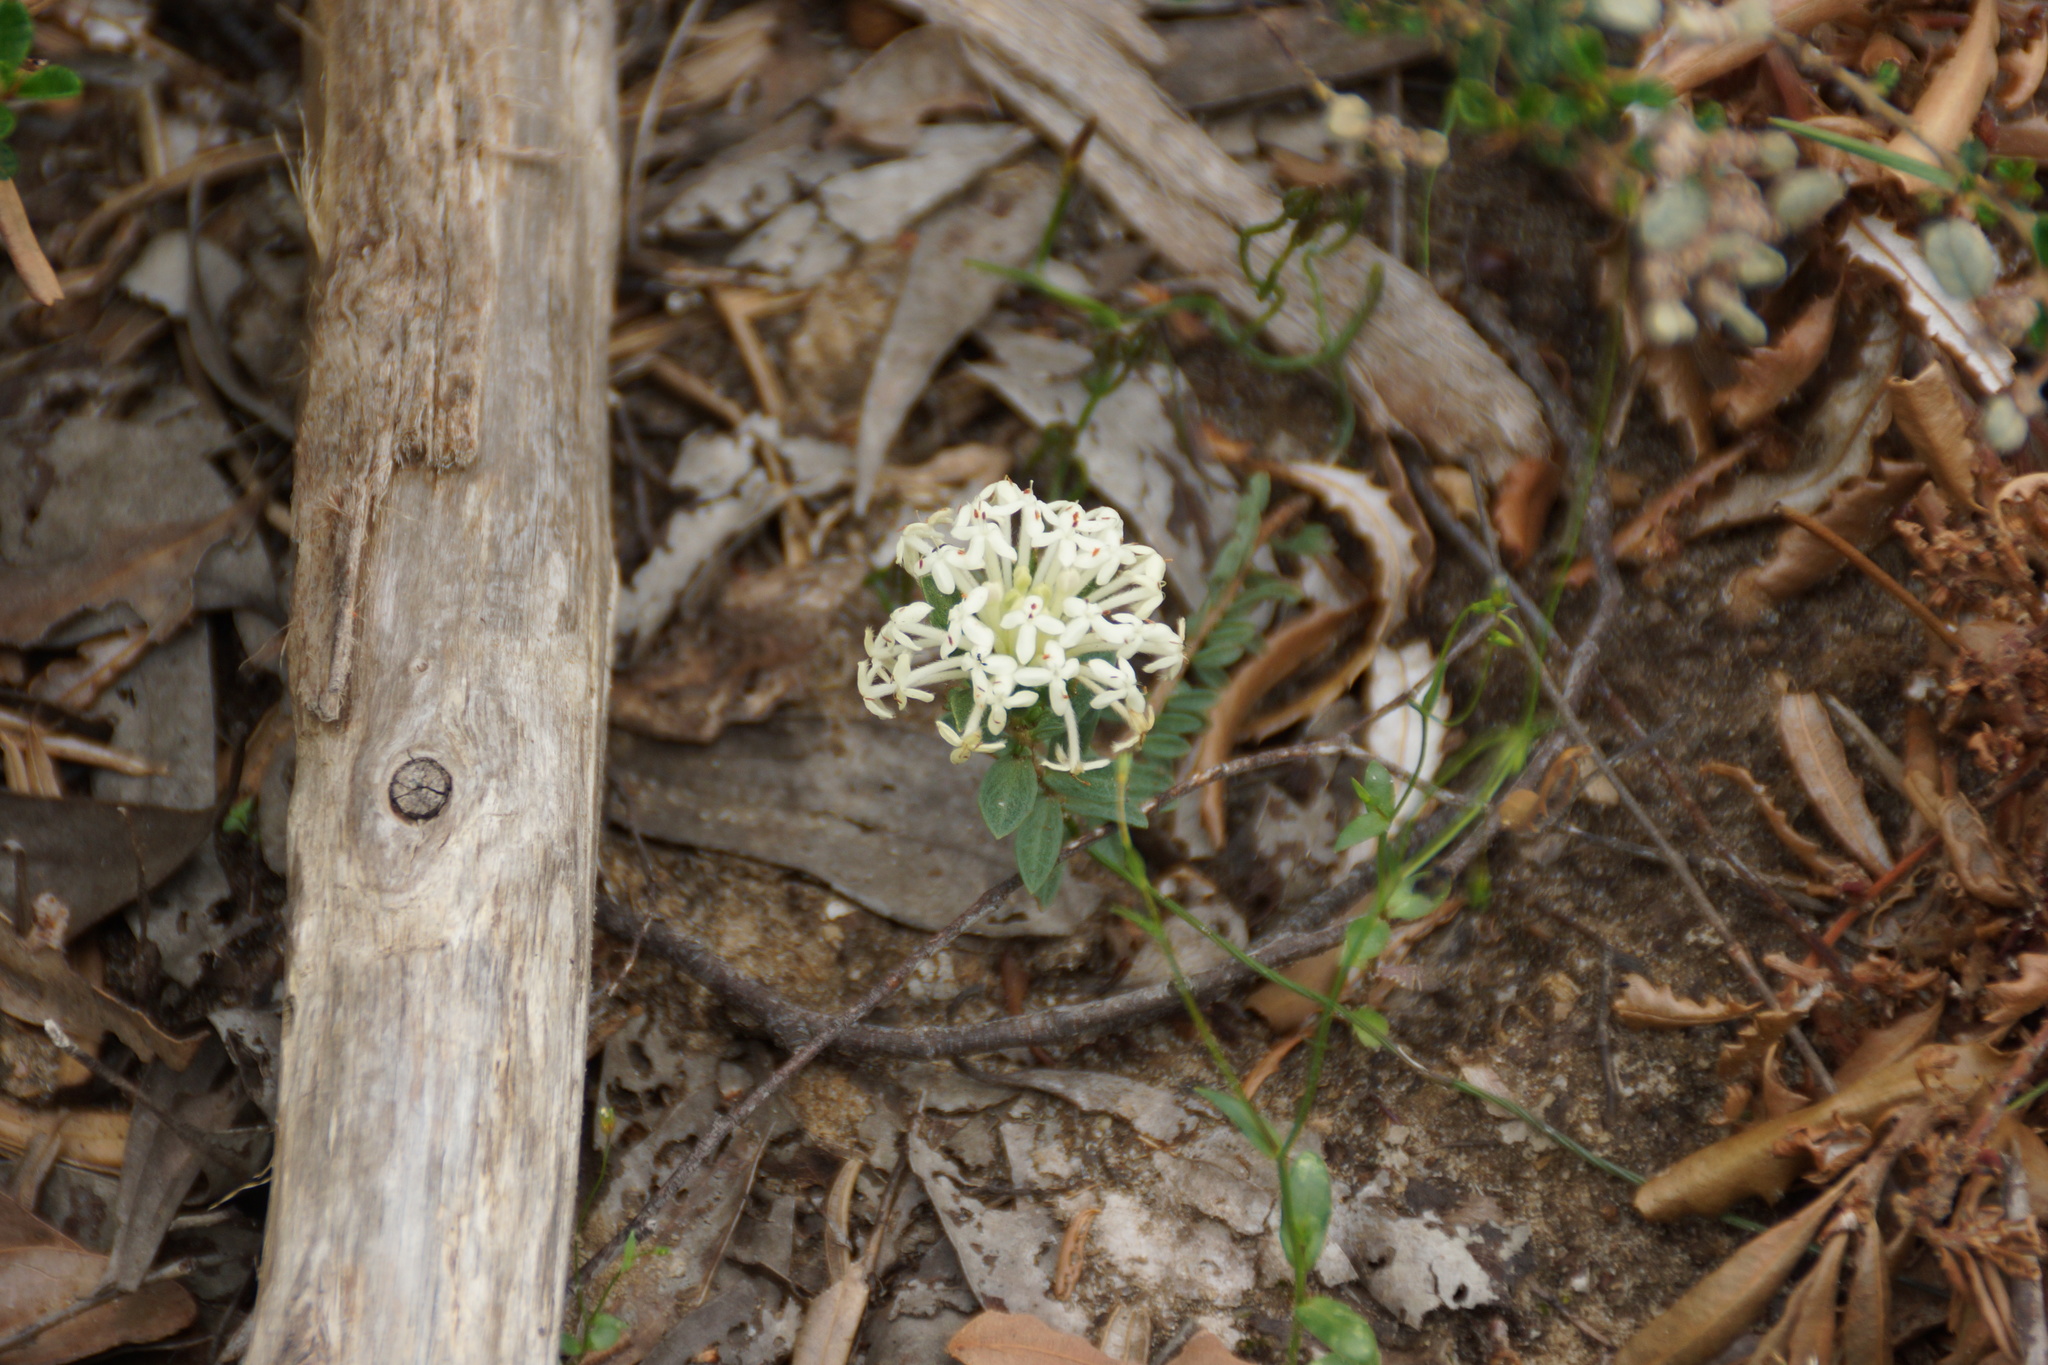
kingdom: Plantae
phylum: Tracheophyta
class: Magnoliopsida
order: Malvales
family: Thymelaeaceae
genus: Pimelea
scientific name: Pimelea humilis
